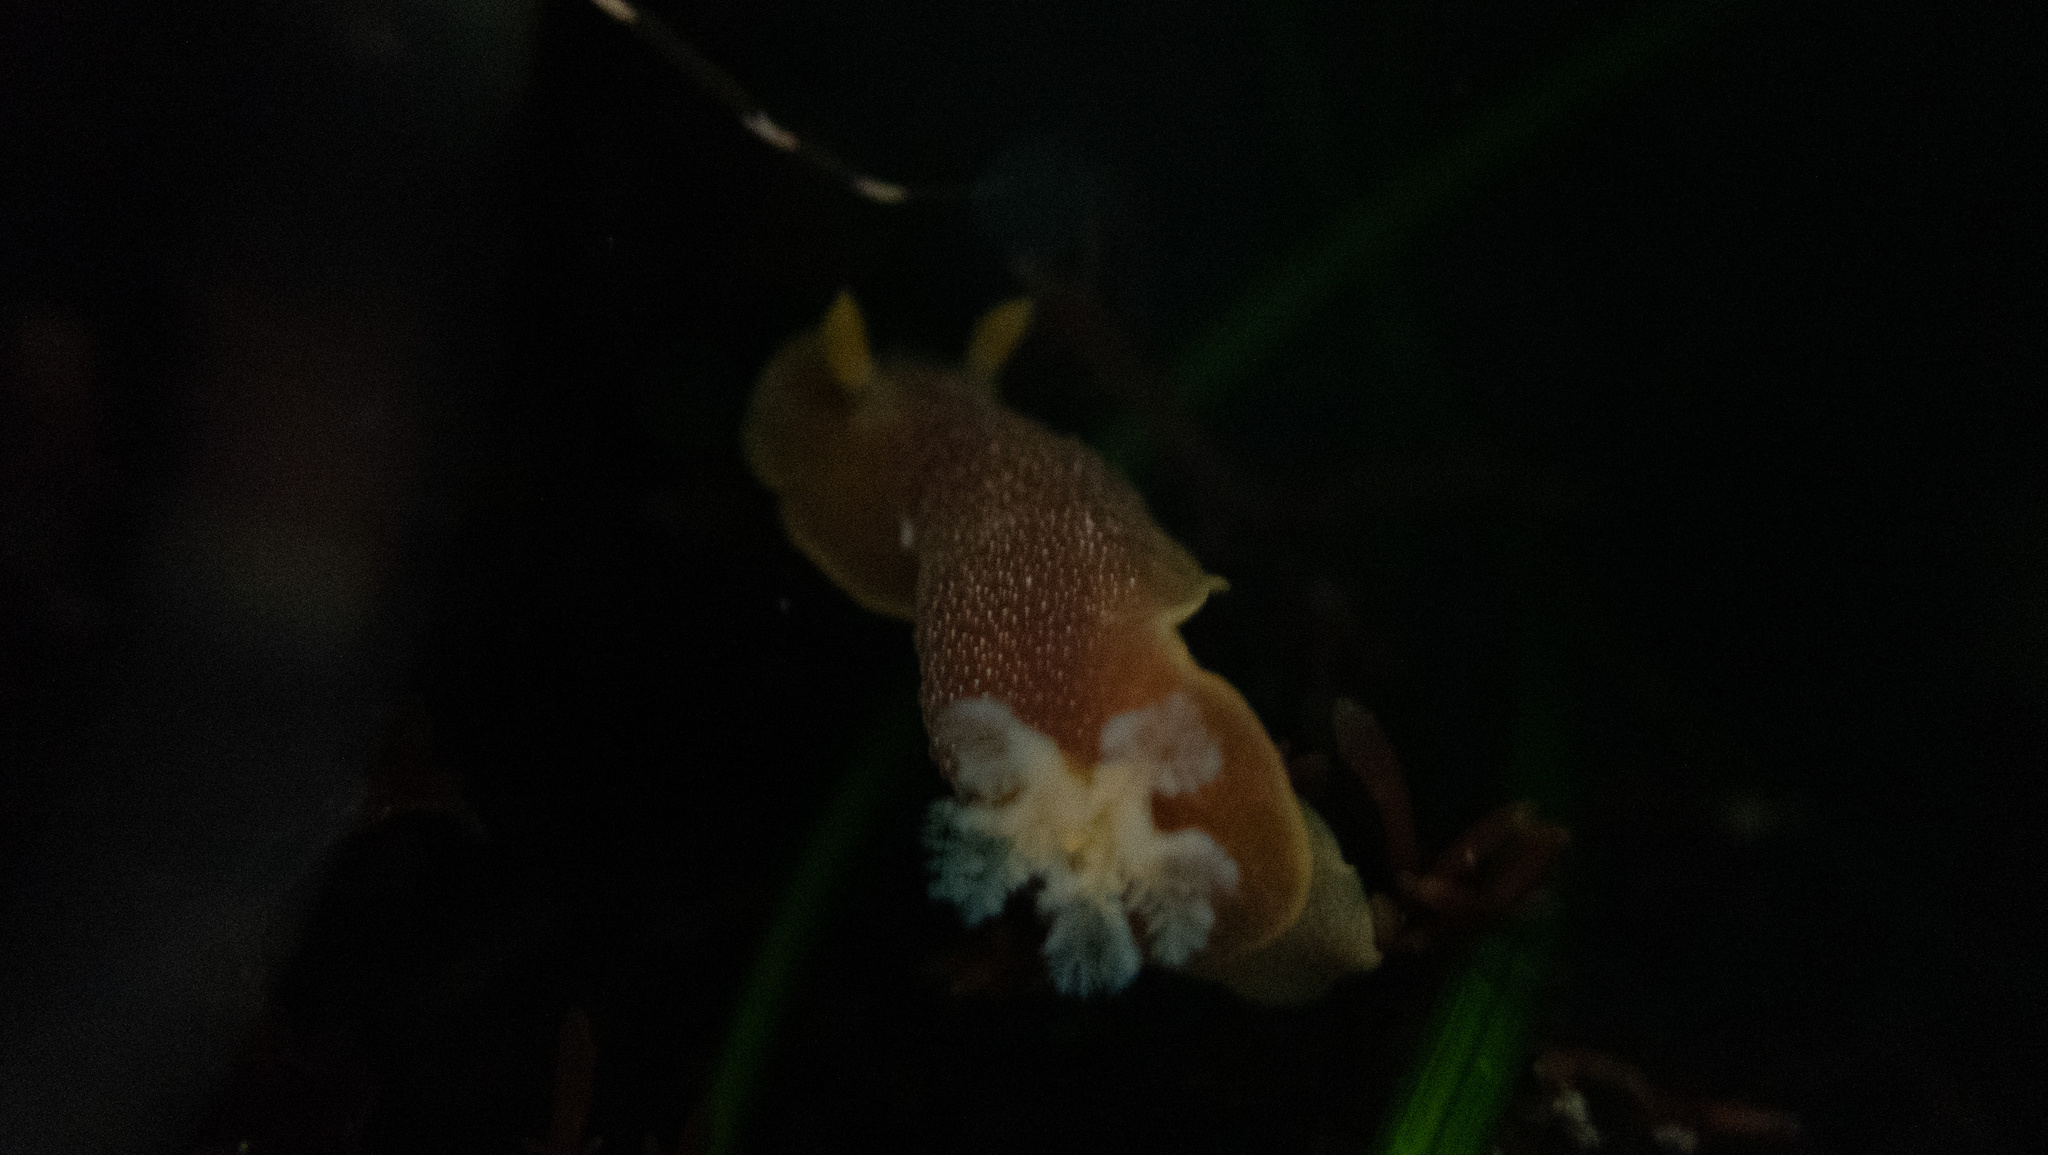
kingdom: Animalia
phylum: Mollusca
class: Gastropoda
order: Nudibranchia
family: Dendrodorididae
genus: Doriopsilla
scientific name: Doriopsilla albopunctata
